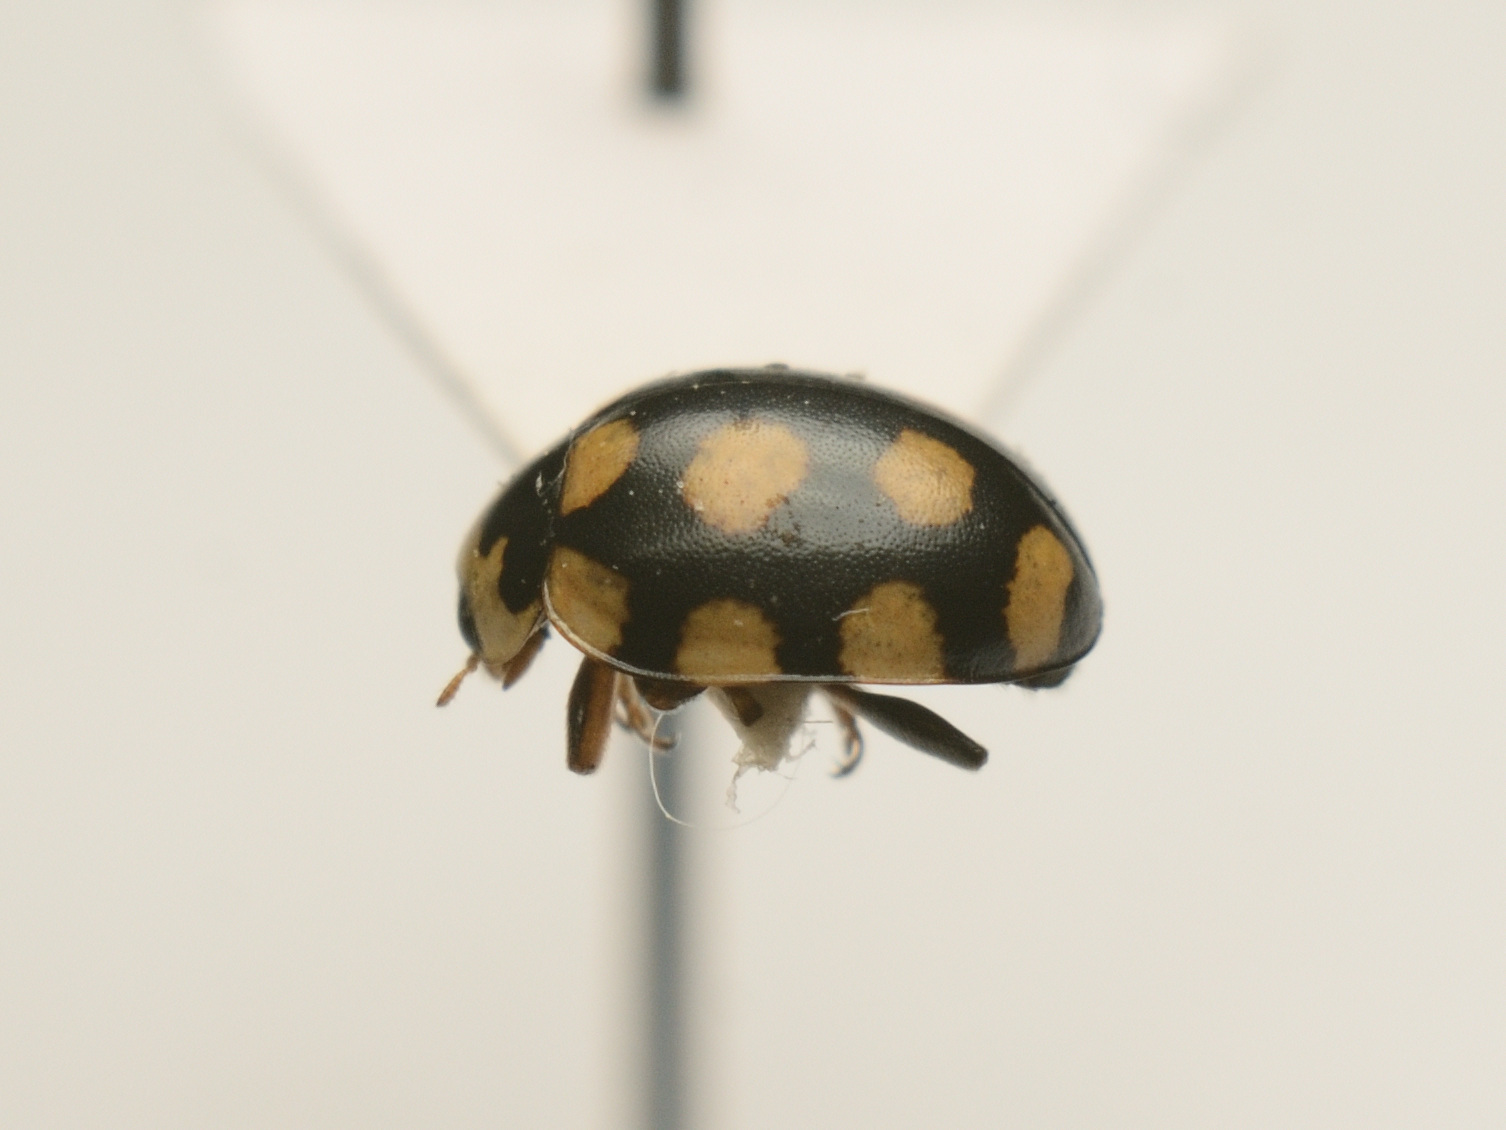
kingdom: Animalia
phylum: Arthropoda
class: Insecta
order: Coleoptera
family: Coccinellidae
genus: Coccinula
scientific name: Coccinula quatuordecimpustulata
